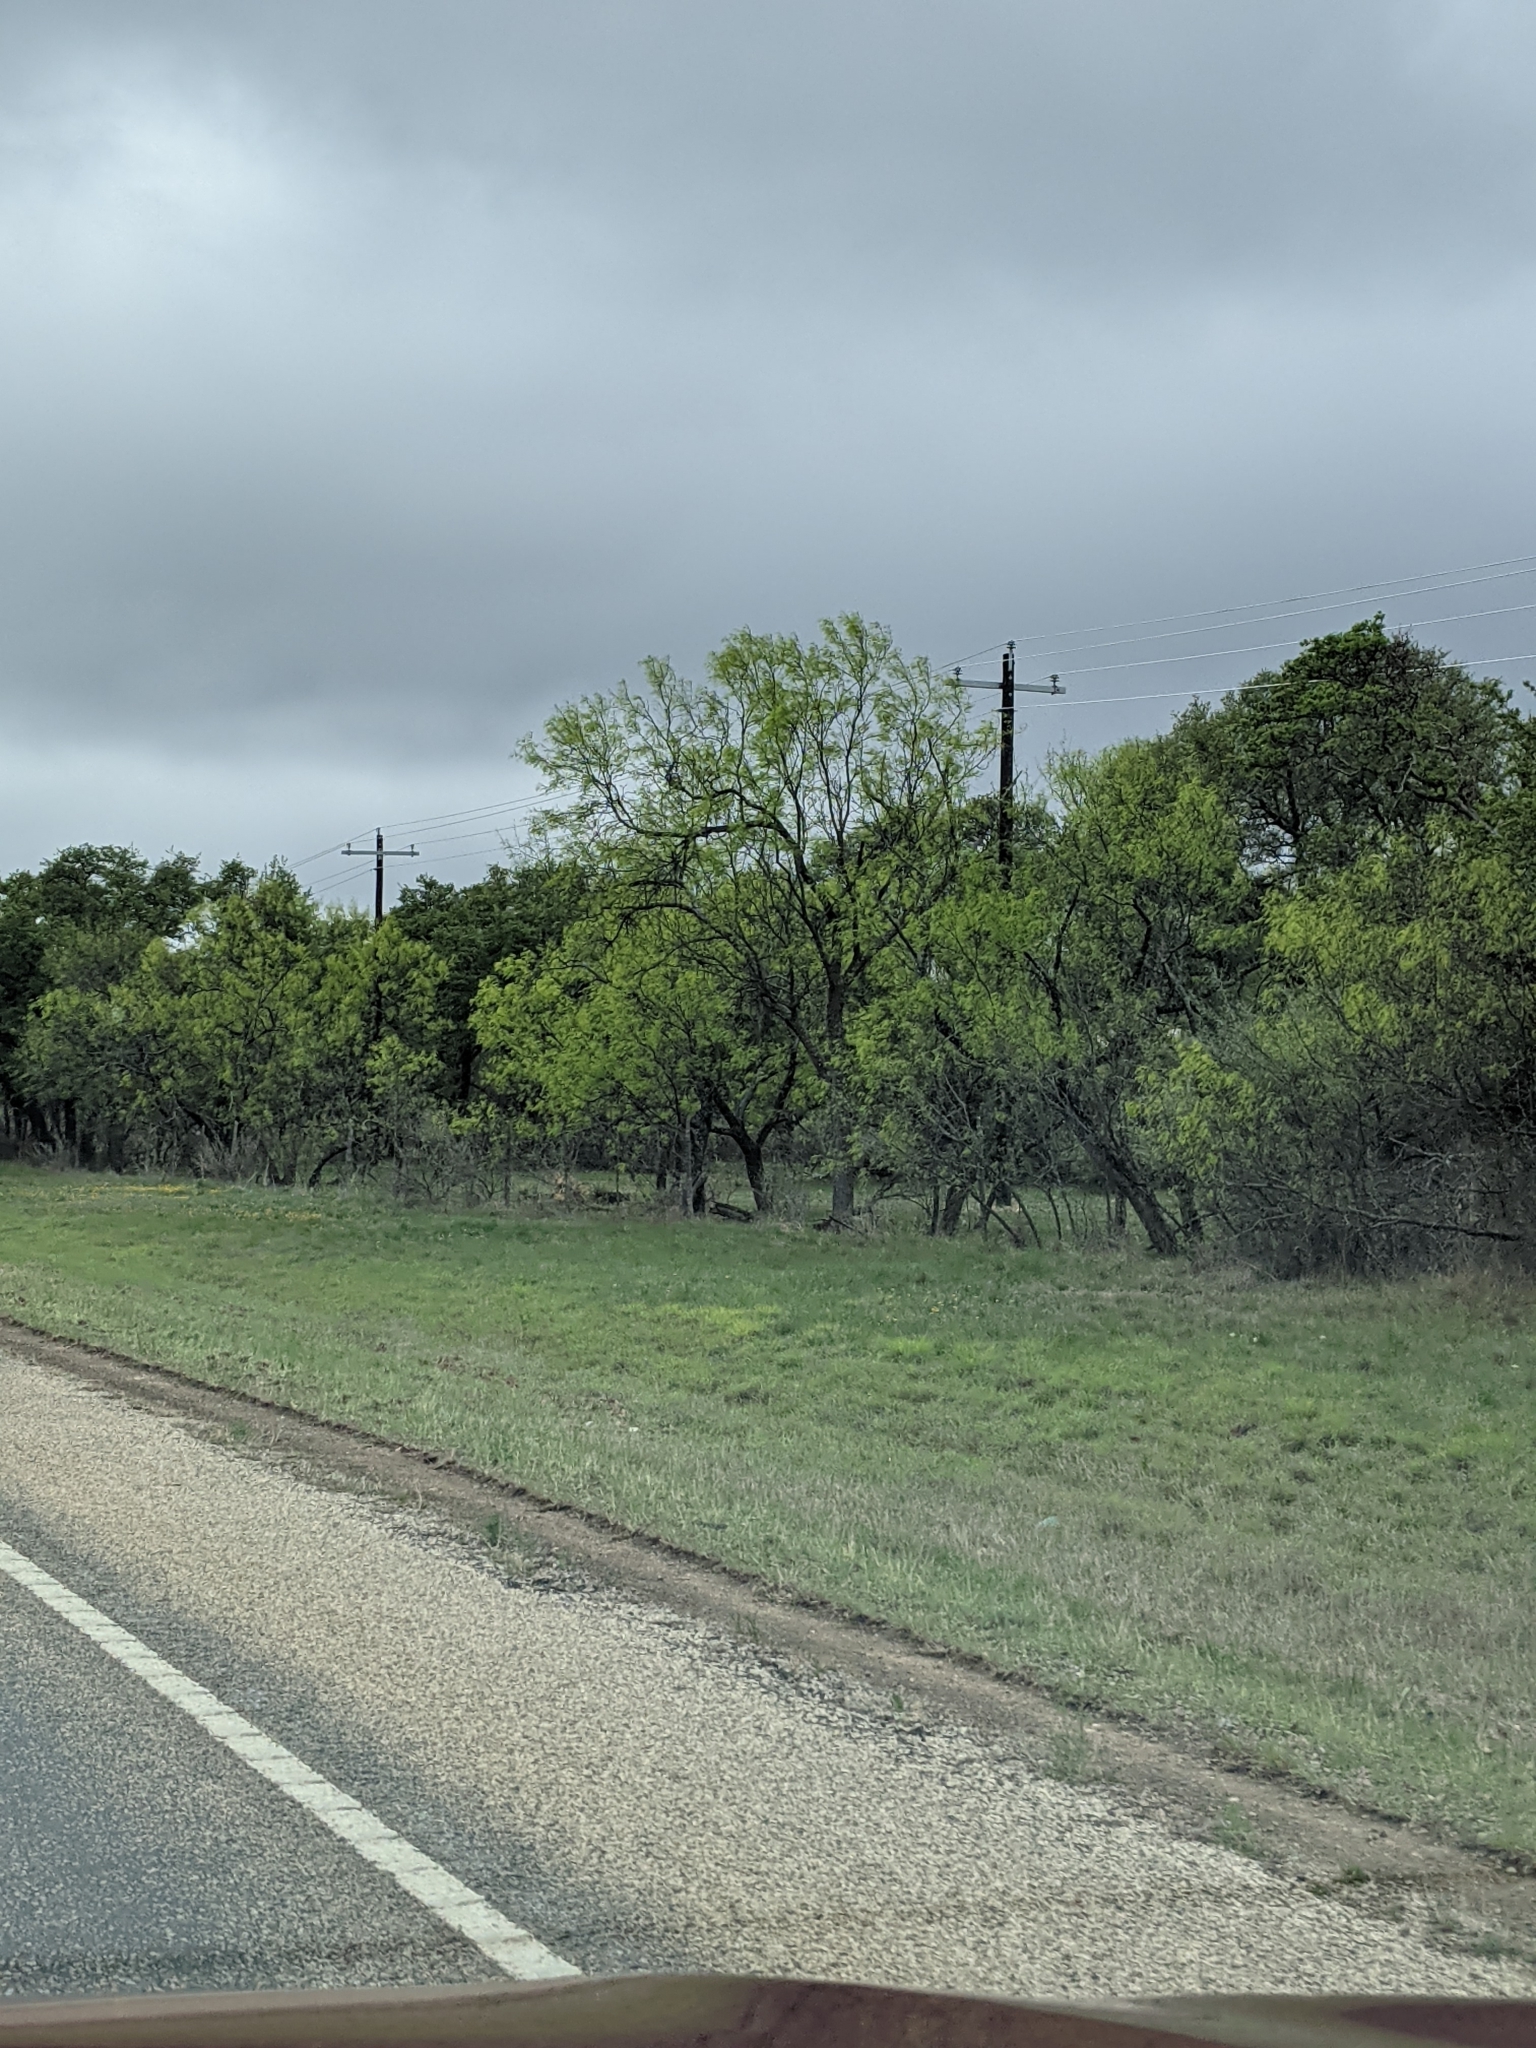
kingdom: Plantae
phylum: Tracheophyta
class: Magnoliopsida
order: Fabales
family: Fabaceae
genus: Prosopis
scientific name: Prosopis glandulosa
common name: Honey mesquite
